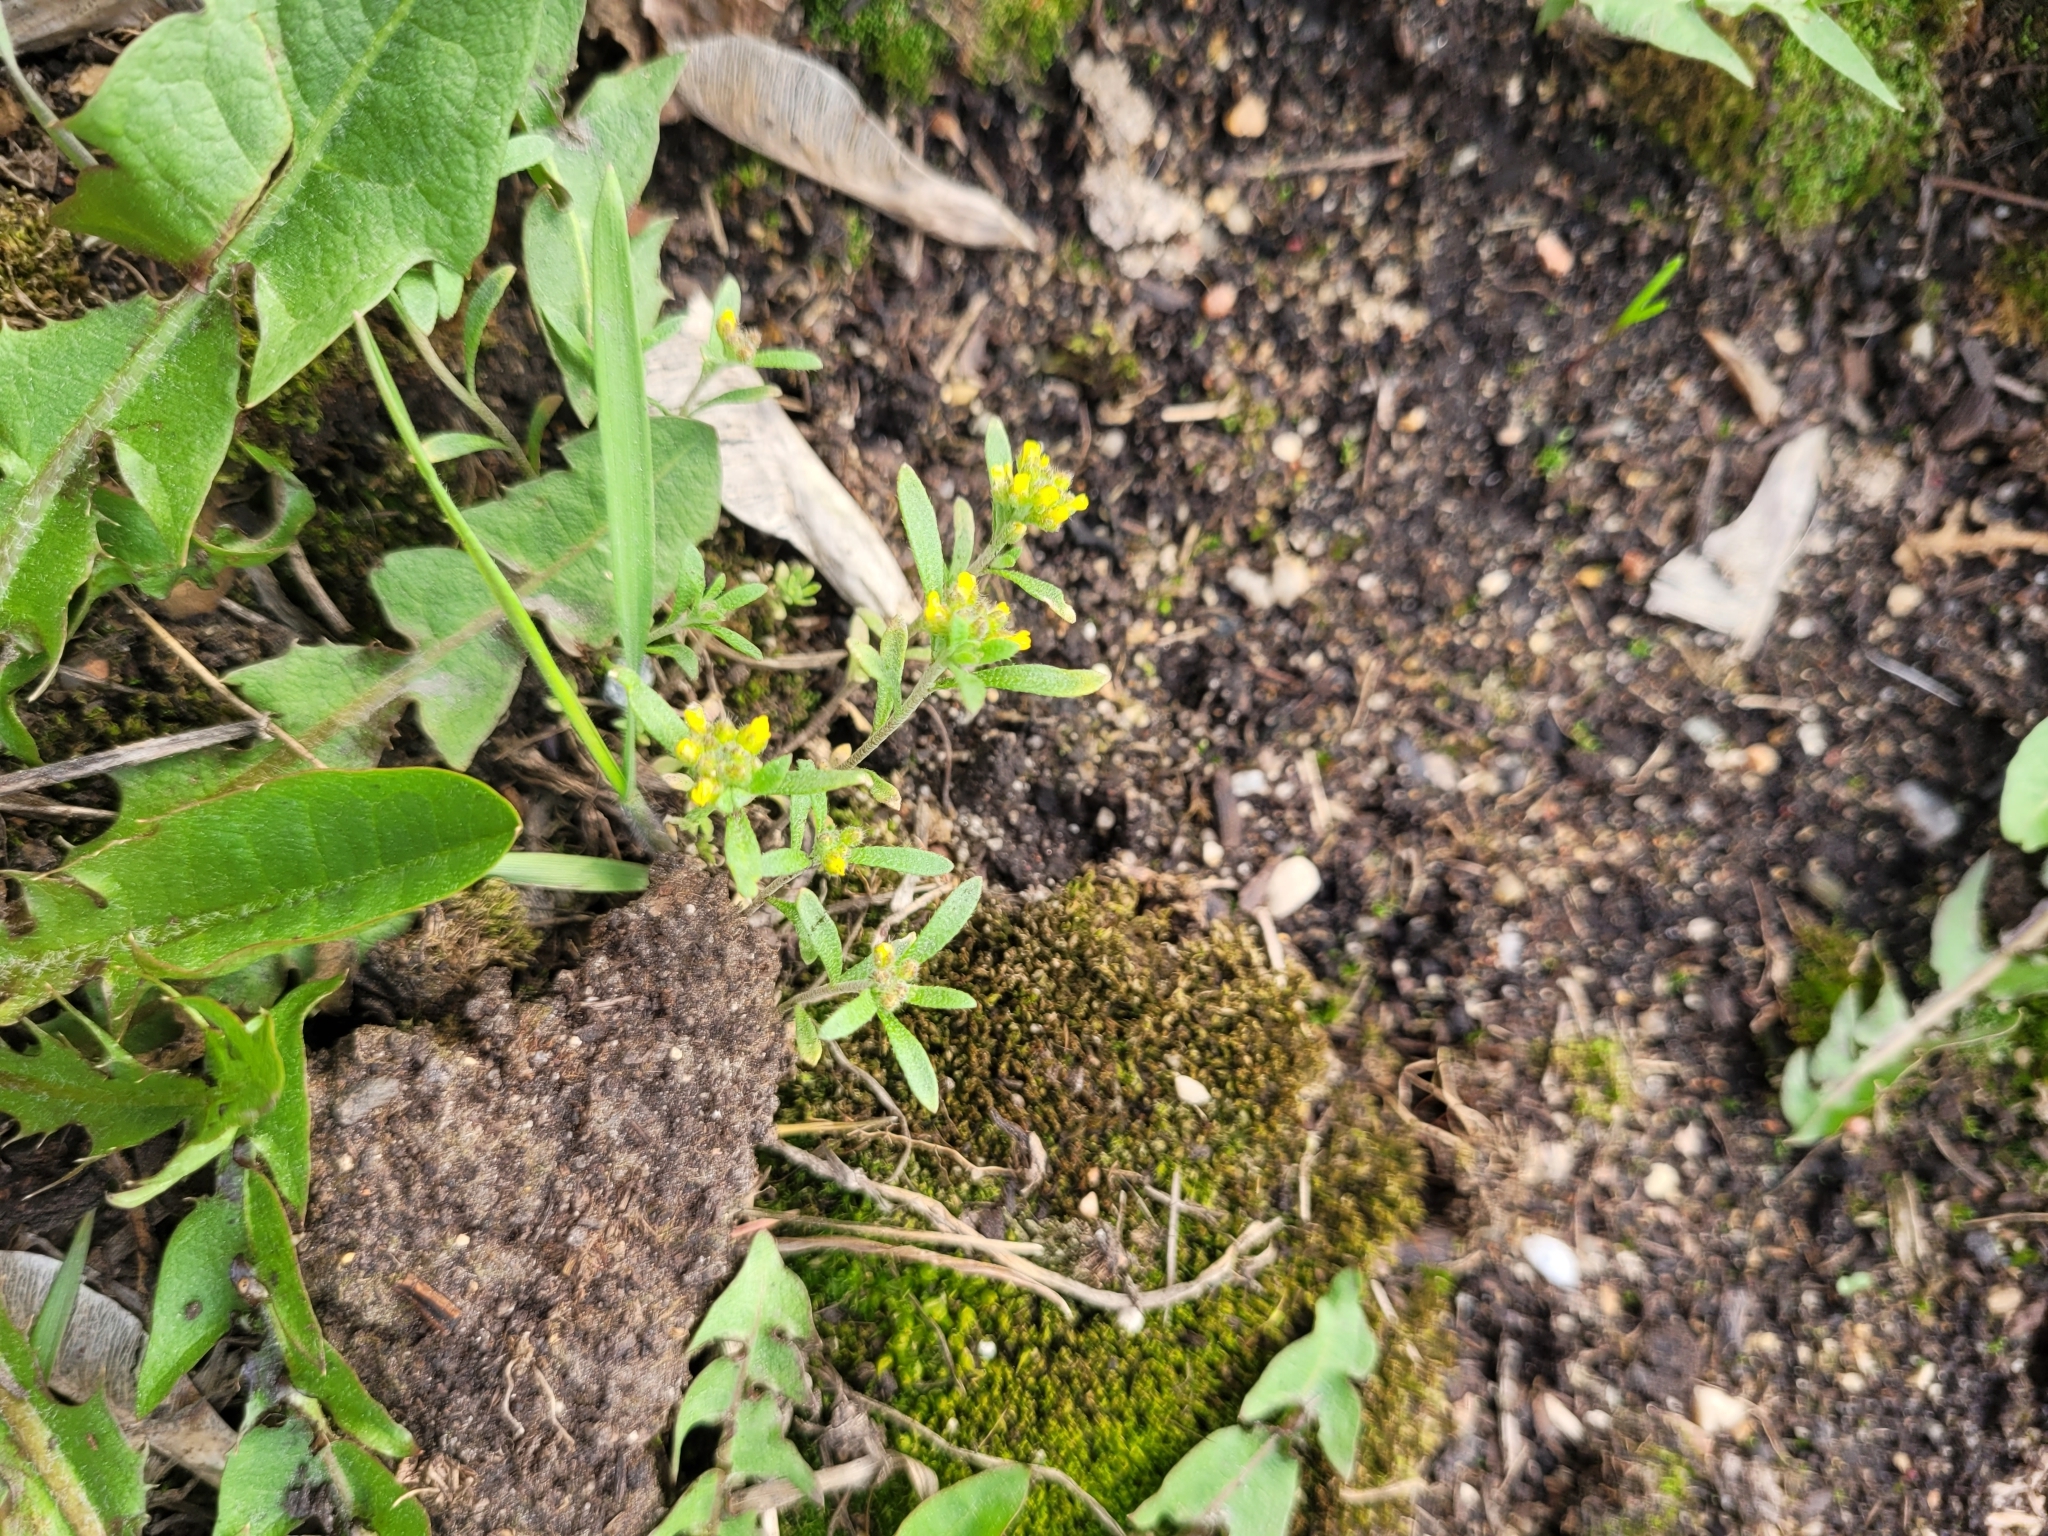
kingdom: Plantae
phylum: Tracheophyta
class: Magnoliopsida
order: Brassicales
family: Brassicaceae
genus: Alyssum
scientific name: Alyssum turkestanicum
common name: Desert alyssum
